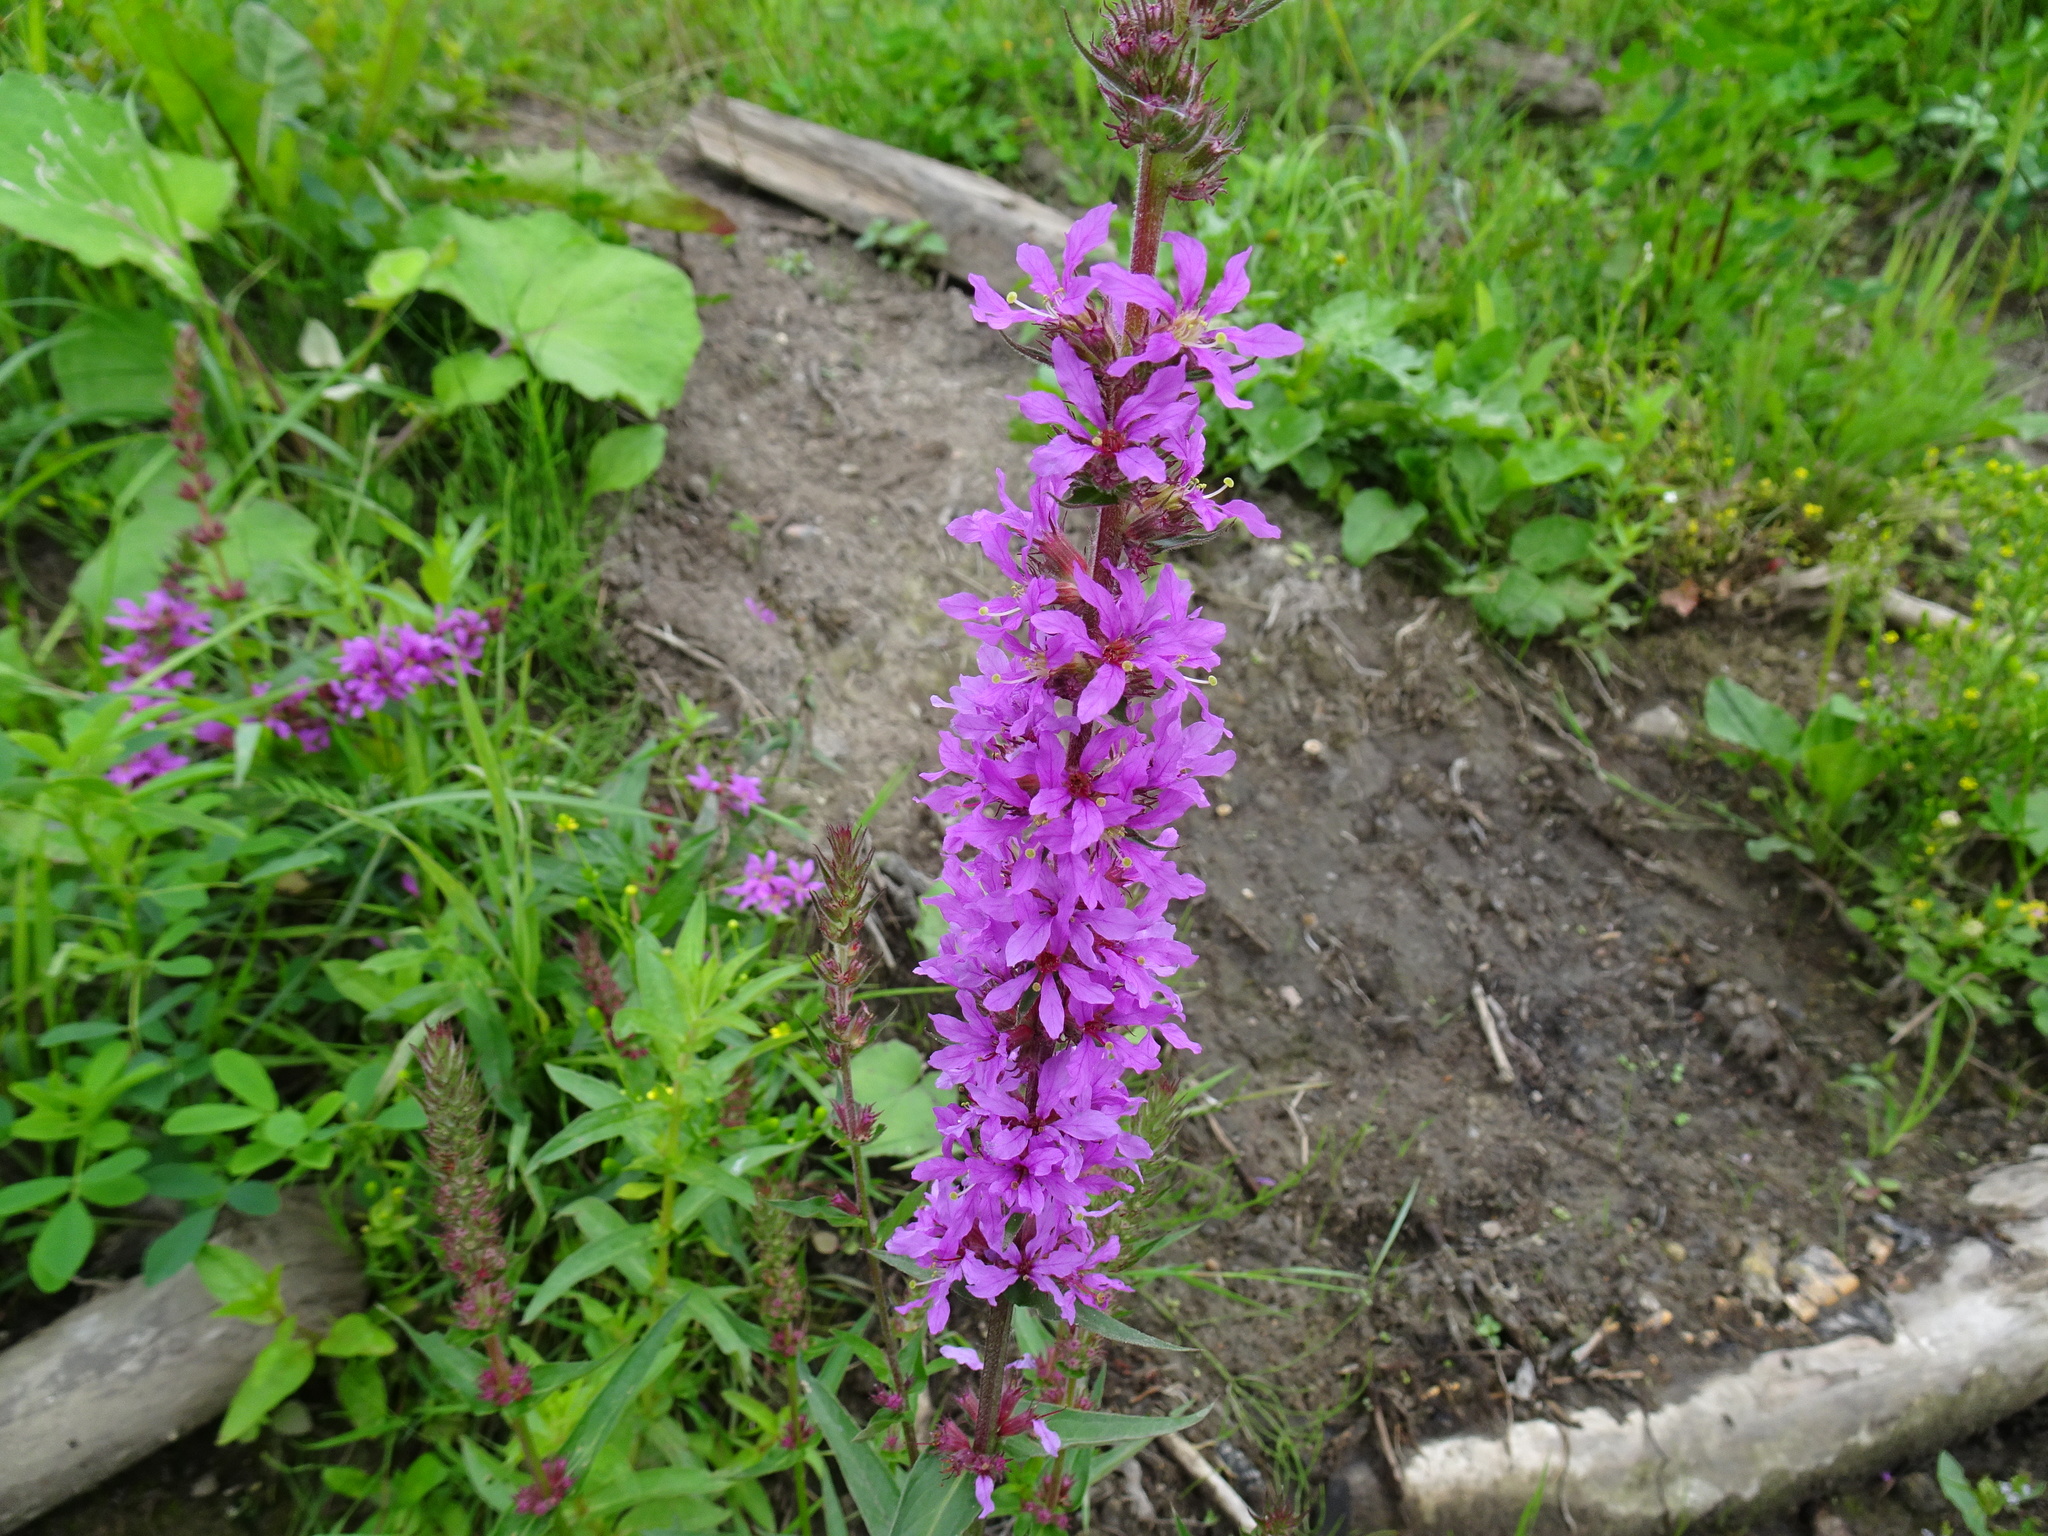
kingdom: Plantae
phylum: Tracheophyta
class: Magnoliopsida
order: Myrtales
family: Lythraceae
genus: Lythrum
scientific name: Lythrum salicaria
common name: Purple loosestrife
